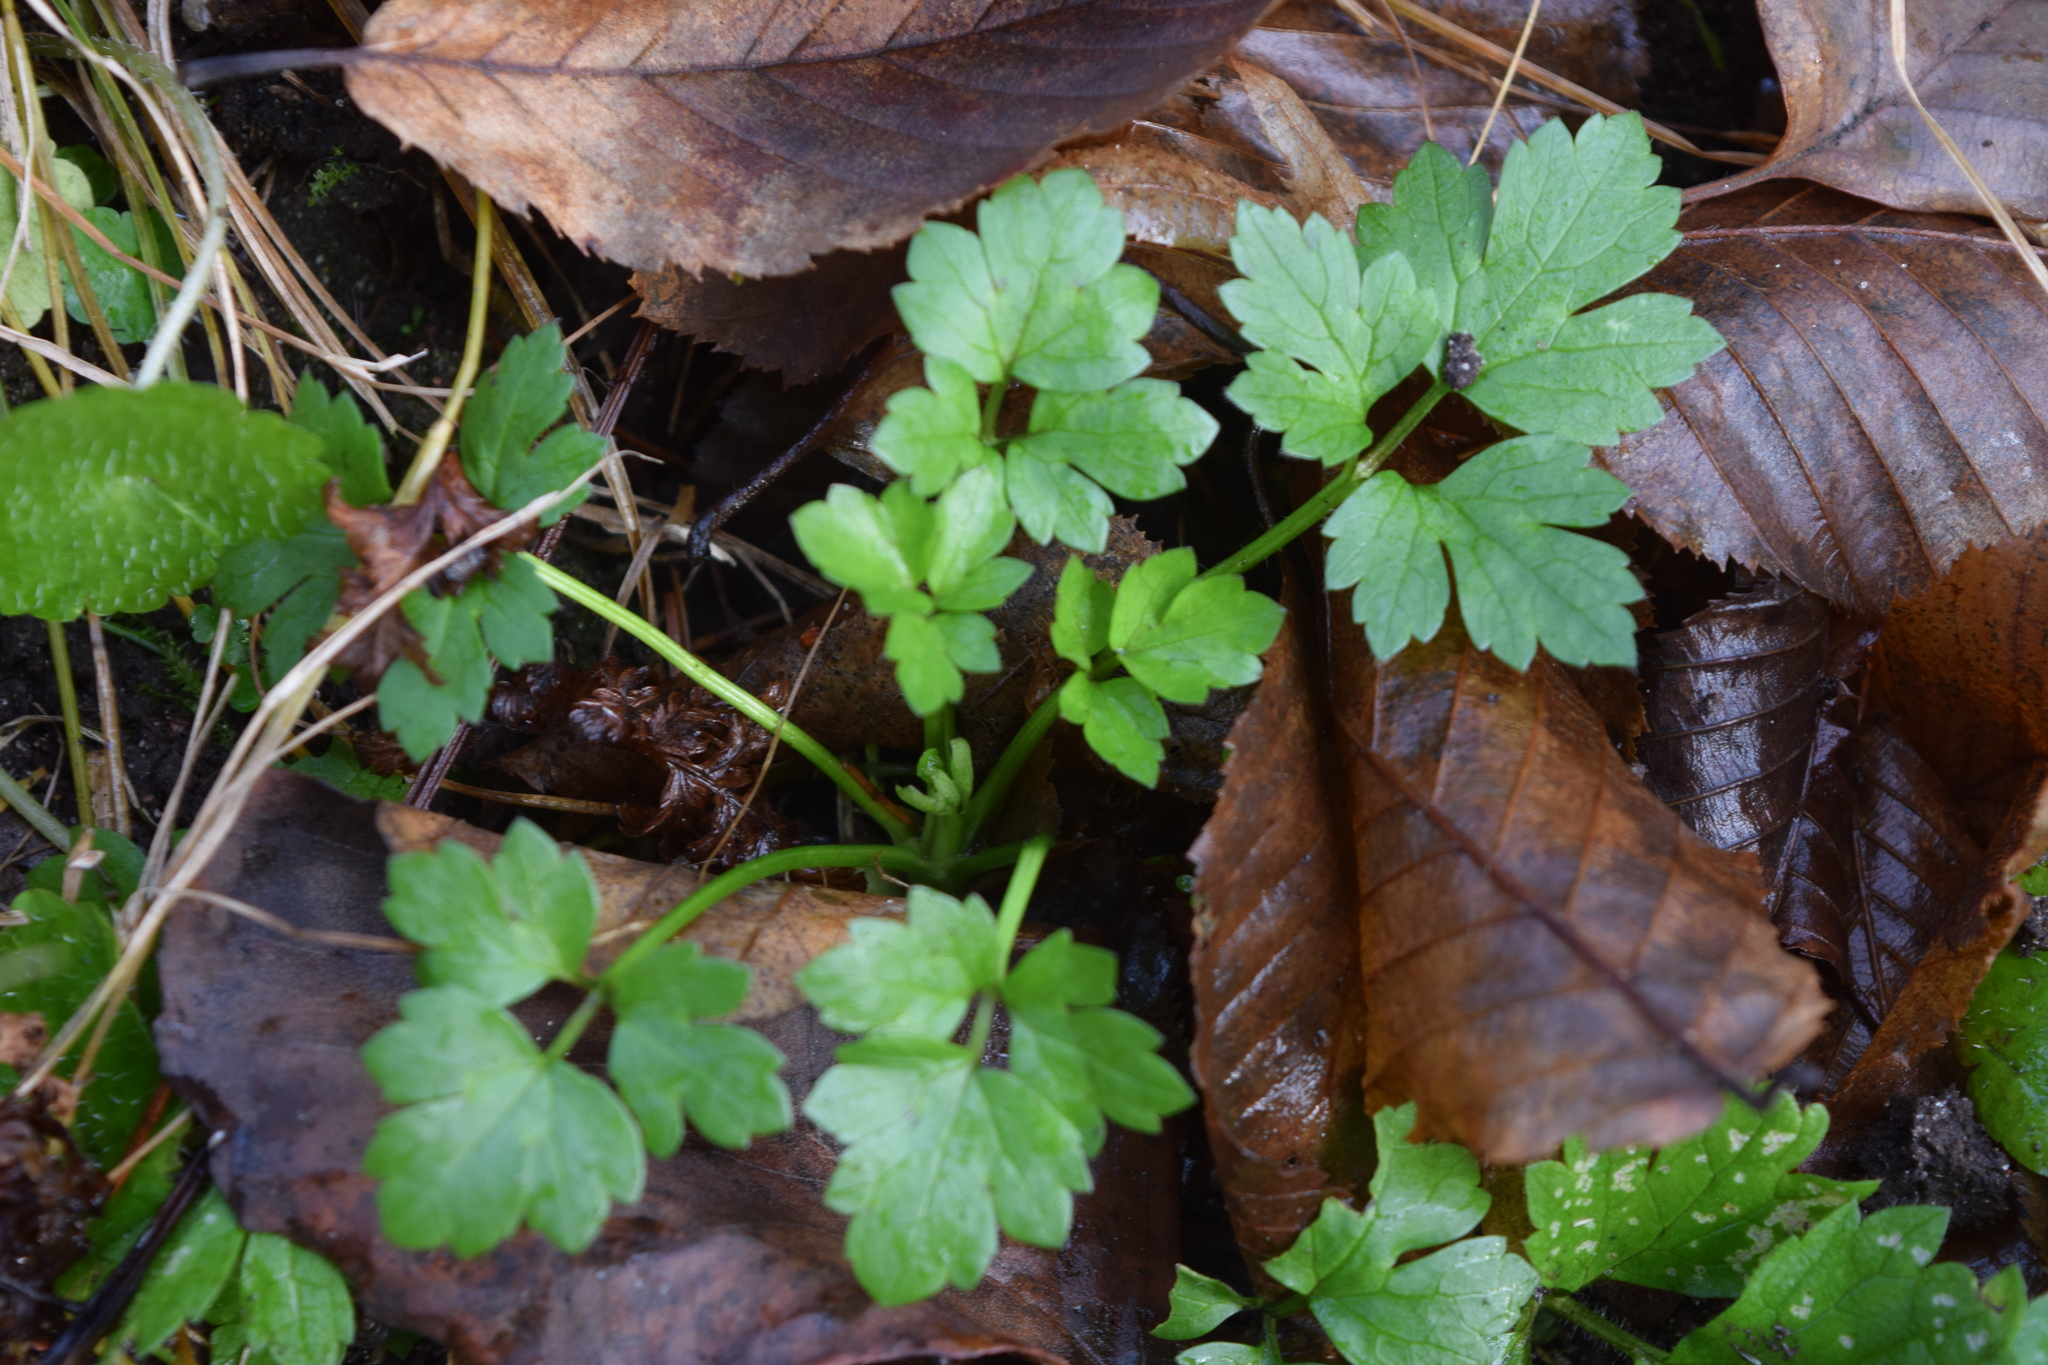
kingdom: Plantae
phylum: Tracheophyta
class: Magnoliopsida
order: Ranunculales
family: Ranunculaceae
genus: Ranunculus
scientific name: Ranunculus repens
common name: Creeping buttercup
